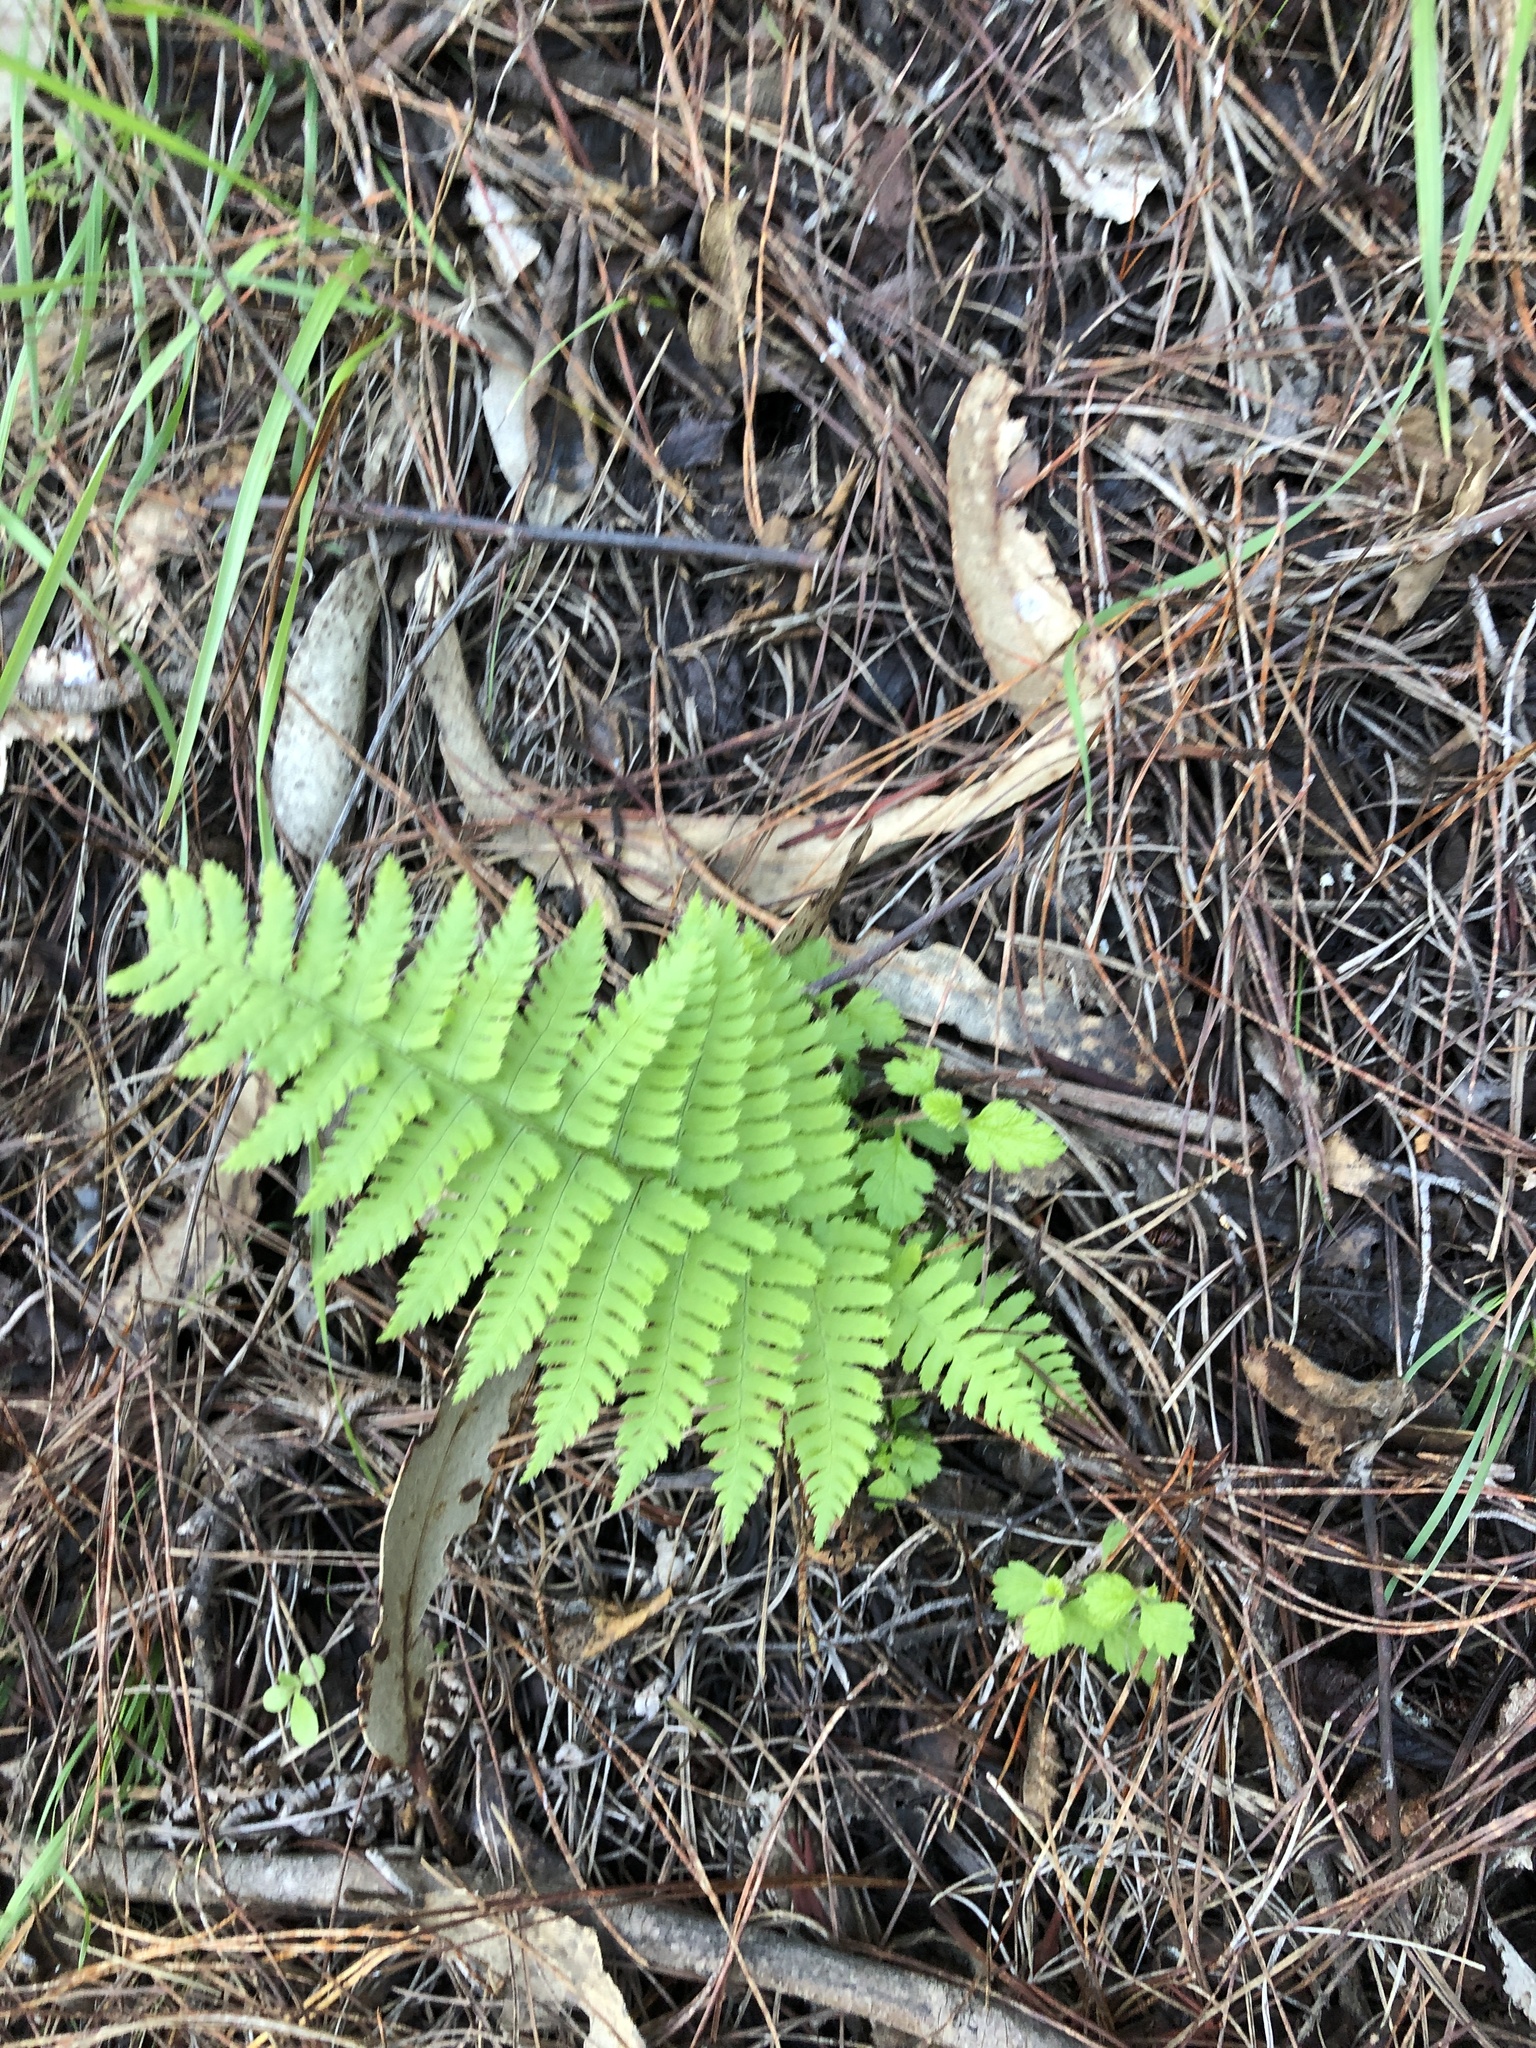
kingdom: Plantae
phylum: Tracheophyta
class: Polypodiopsida
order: Polypodiales
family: Dryopteridaceae
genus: Dryopteris
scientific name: Dryopteris arguta
